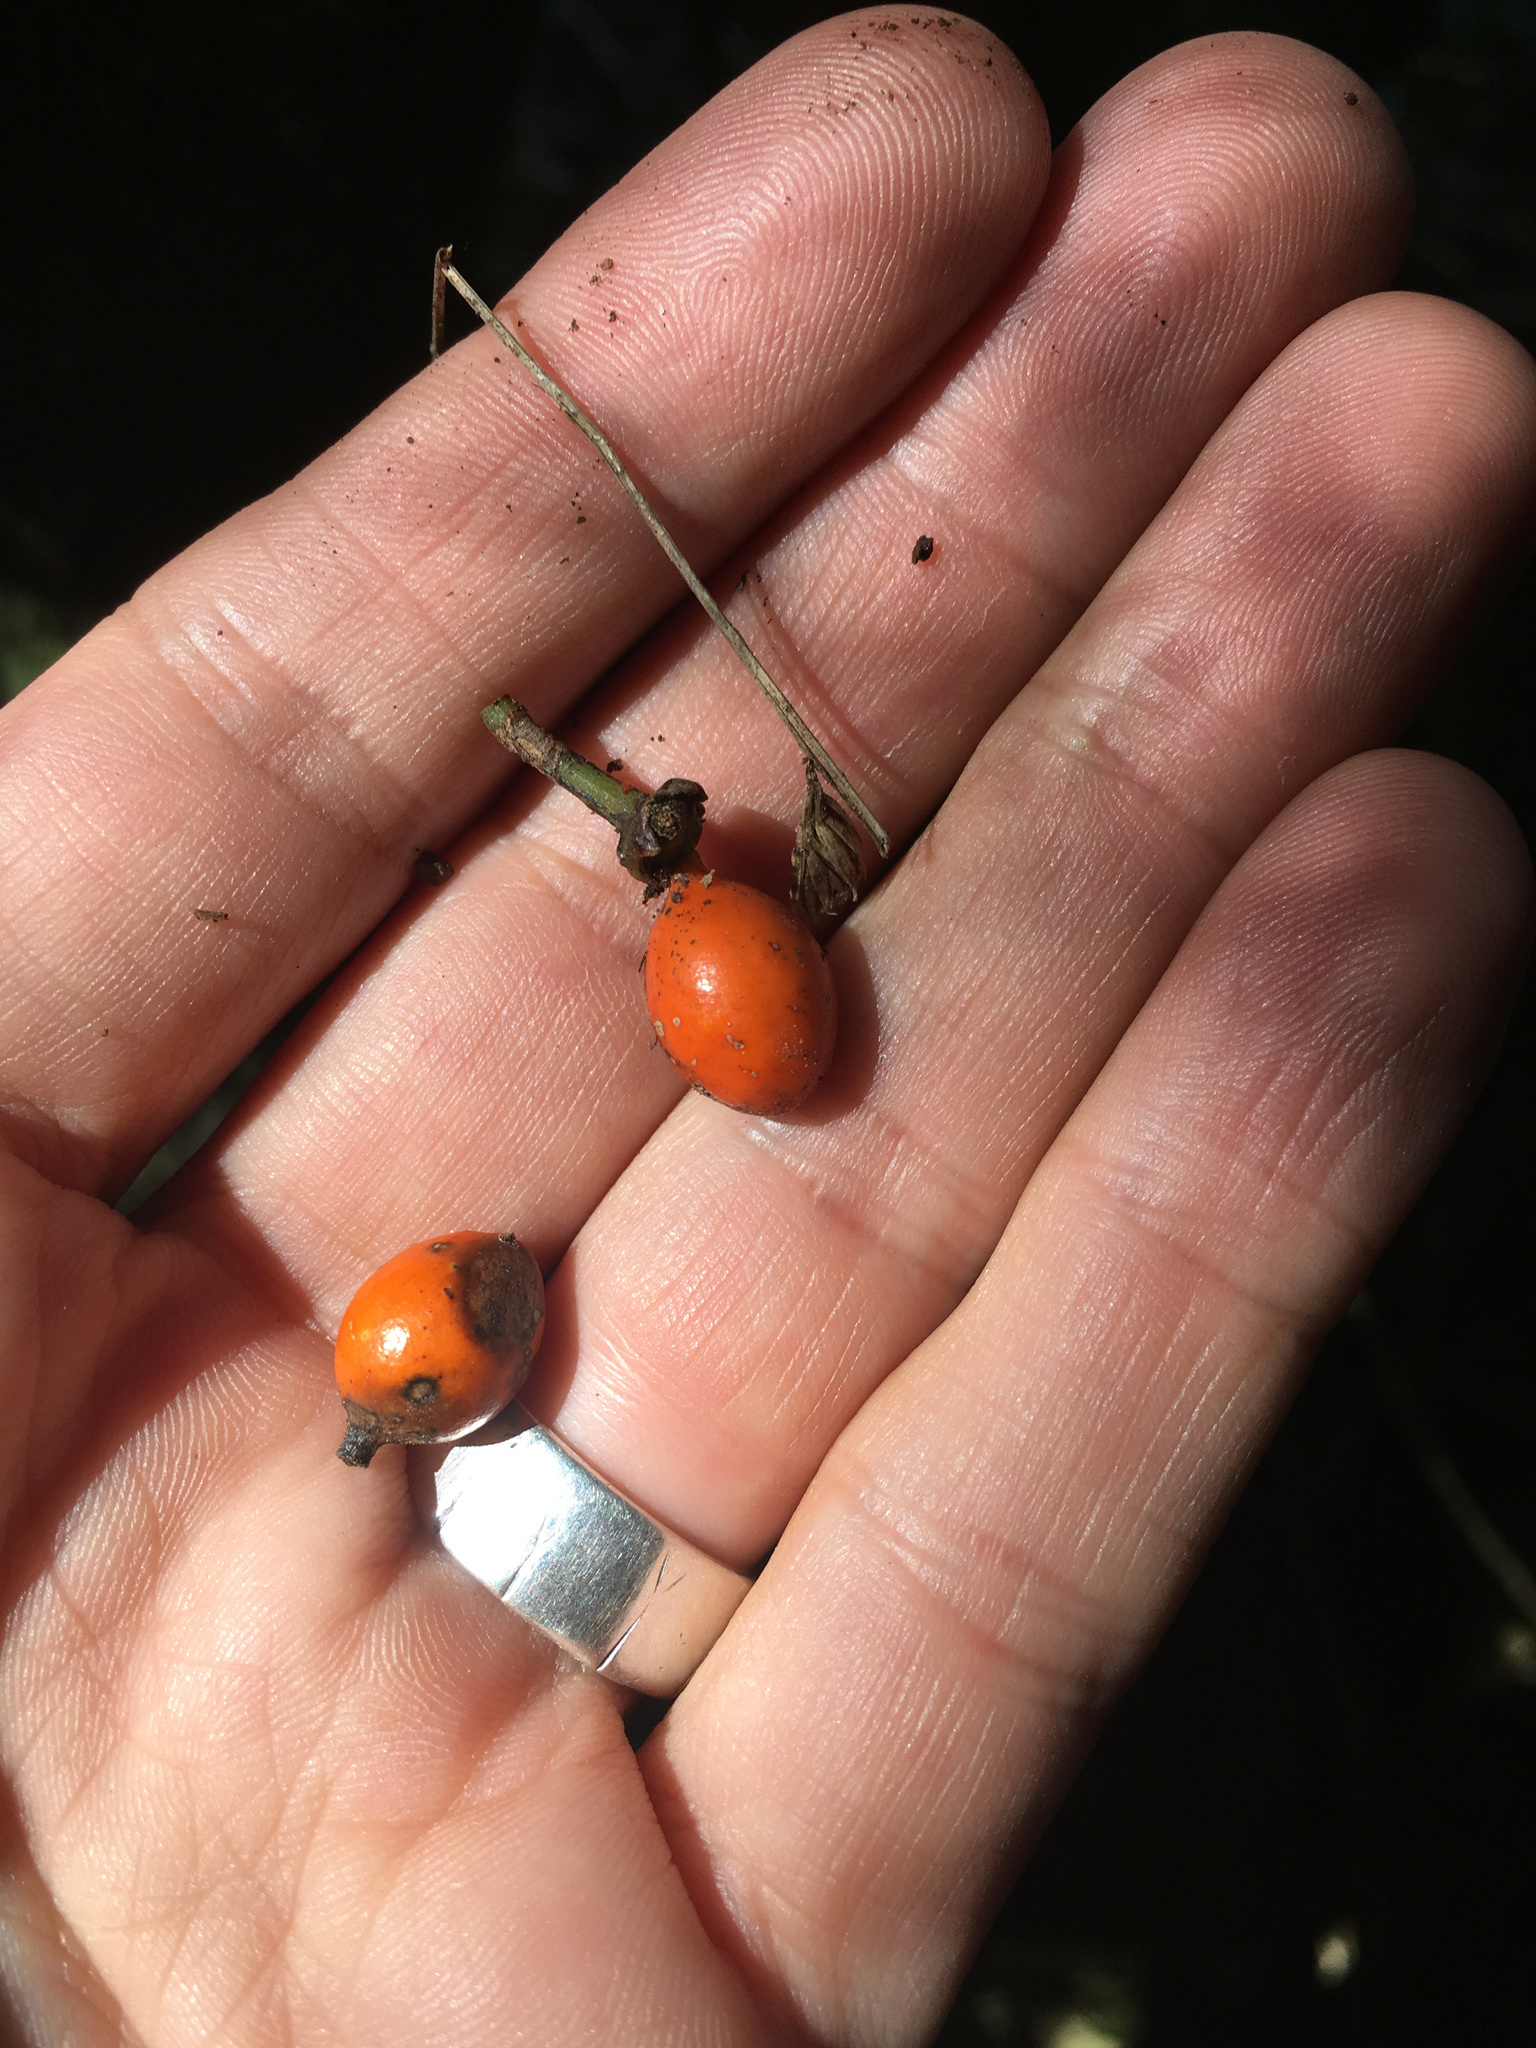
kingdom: Plantae
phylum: Tracheophyta
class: Magnoliopsida
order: Laurales
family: Monimiaceae
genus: Hedycarya
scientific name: Hedycarya arborea
